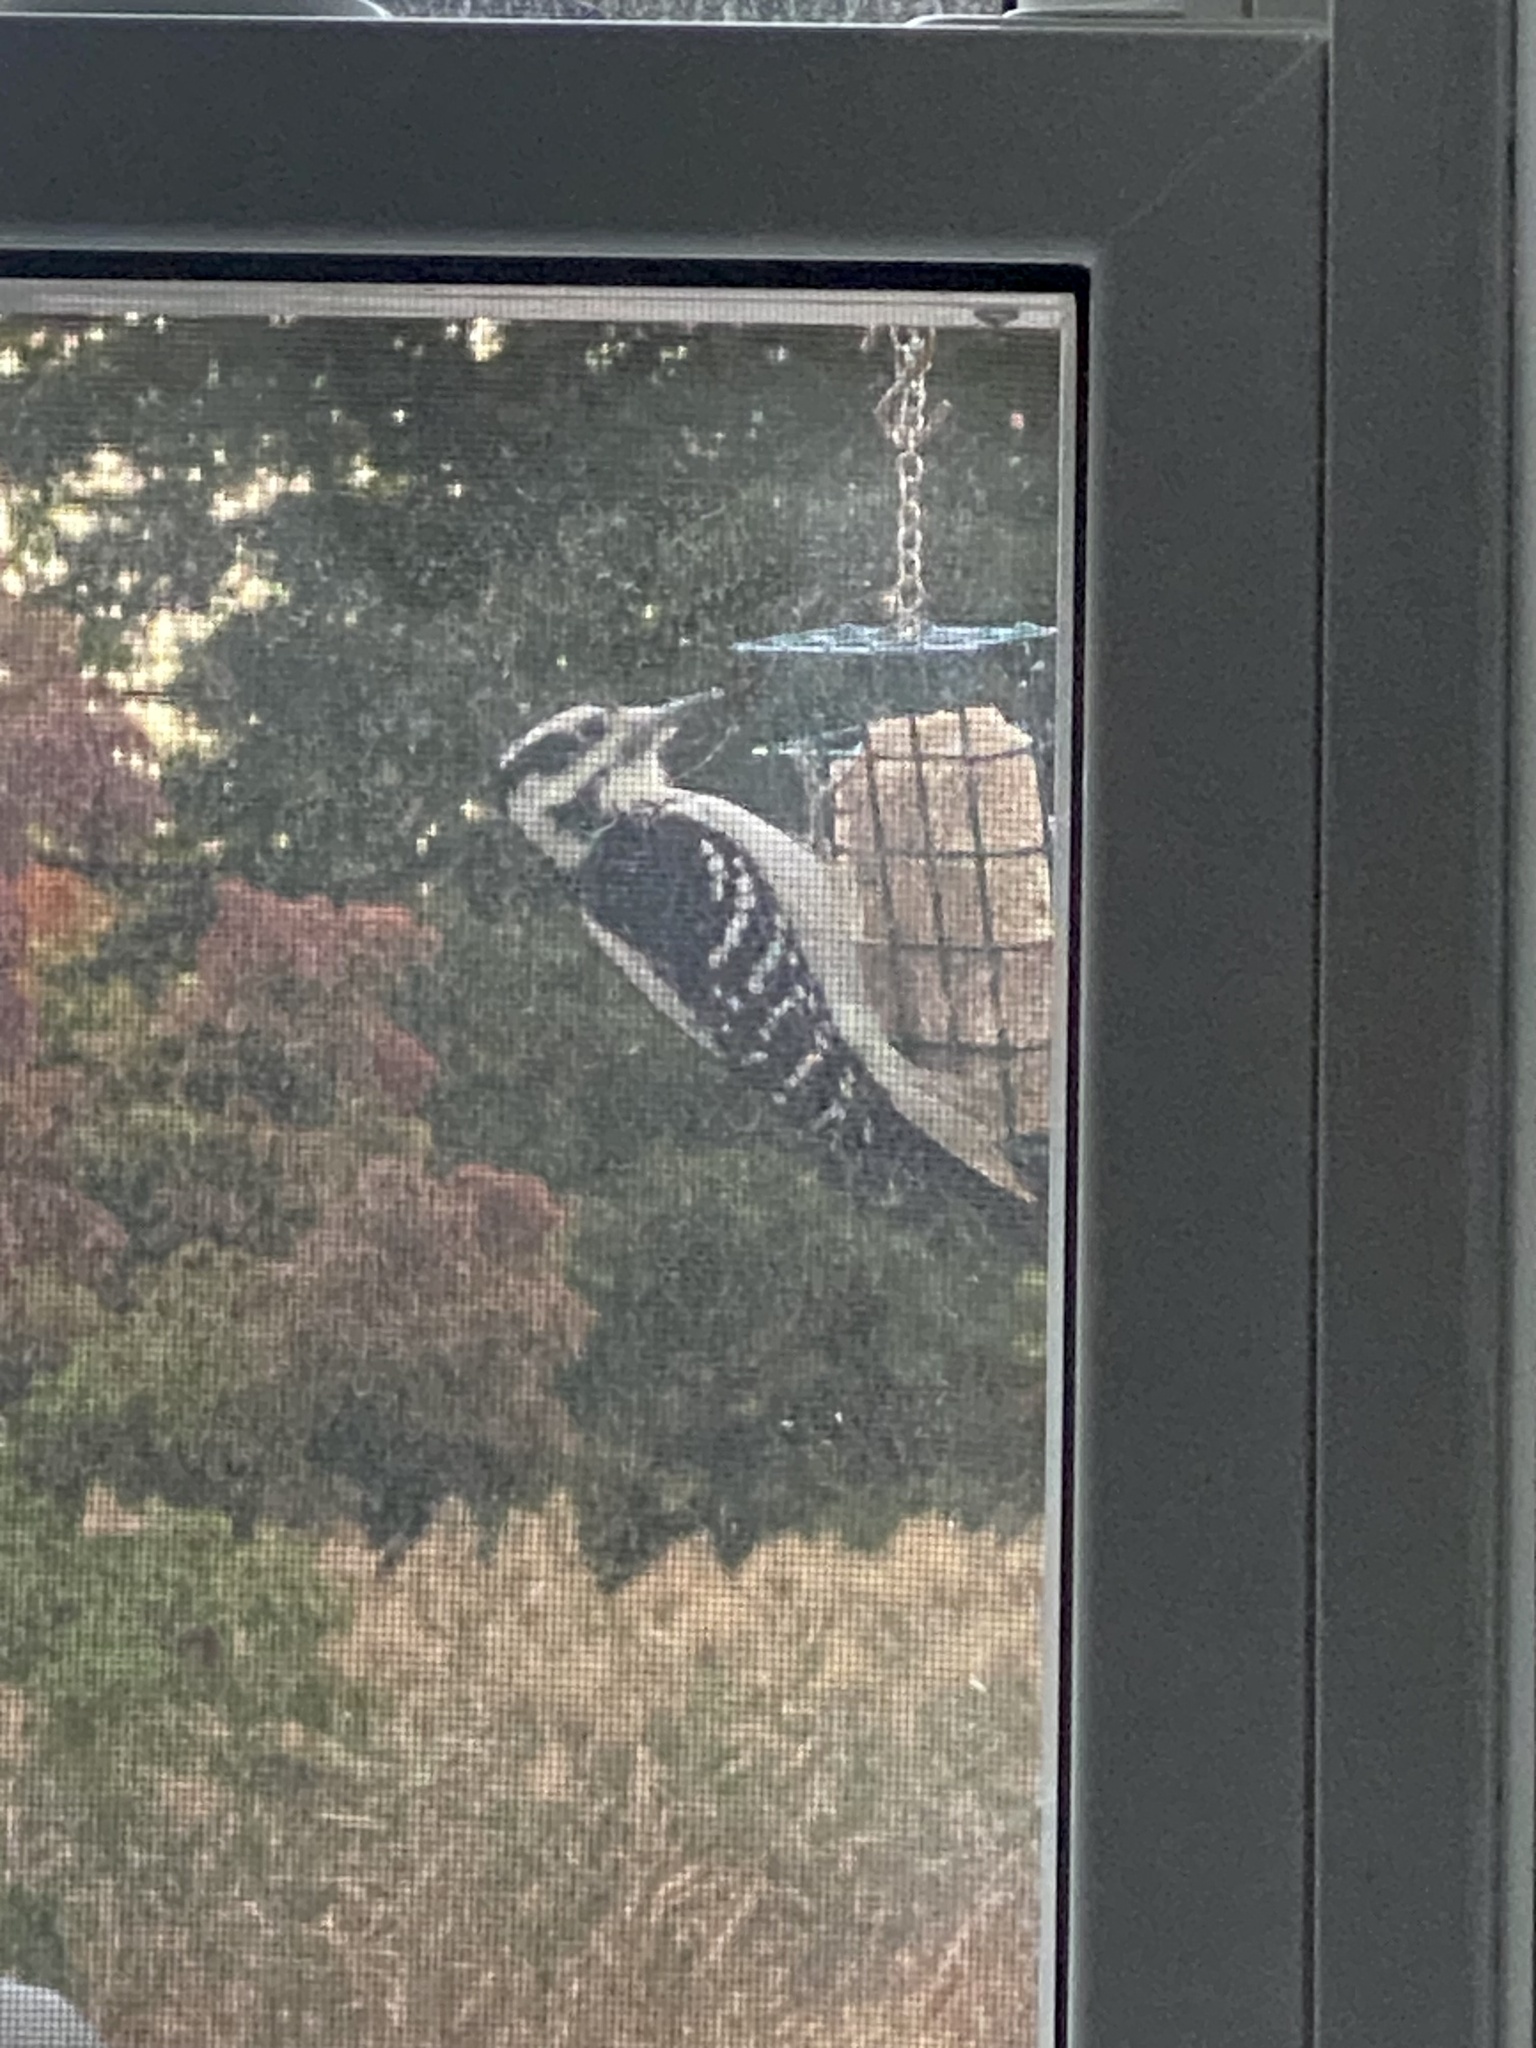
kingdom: Animalia
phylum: Chordata
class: Aves
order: Piciformes
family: Picidae
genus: Leuconotopicus
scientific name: Leuconotopicus villosus
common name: Hairy woodpecker
